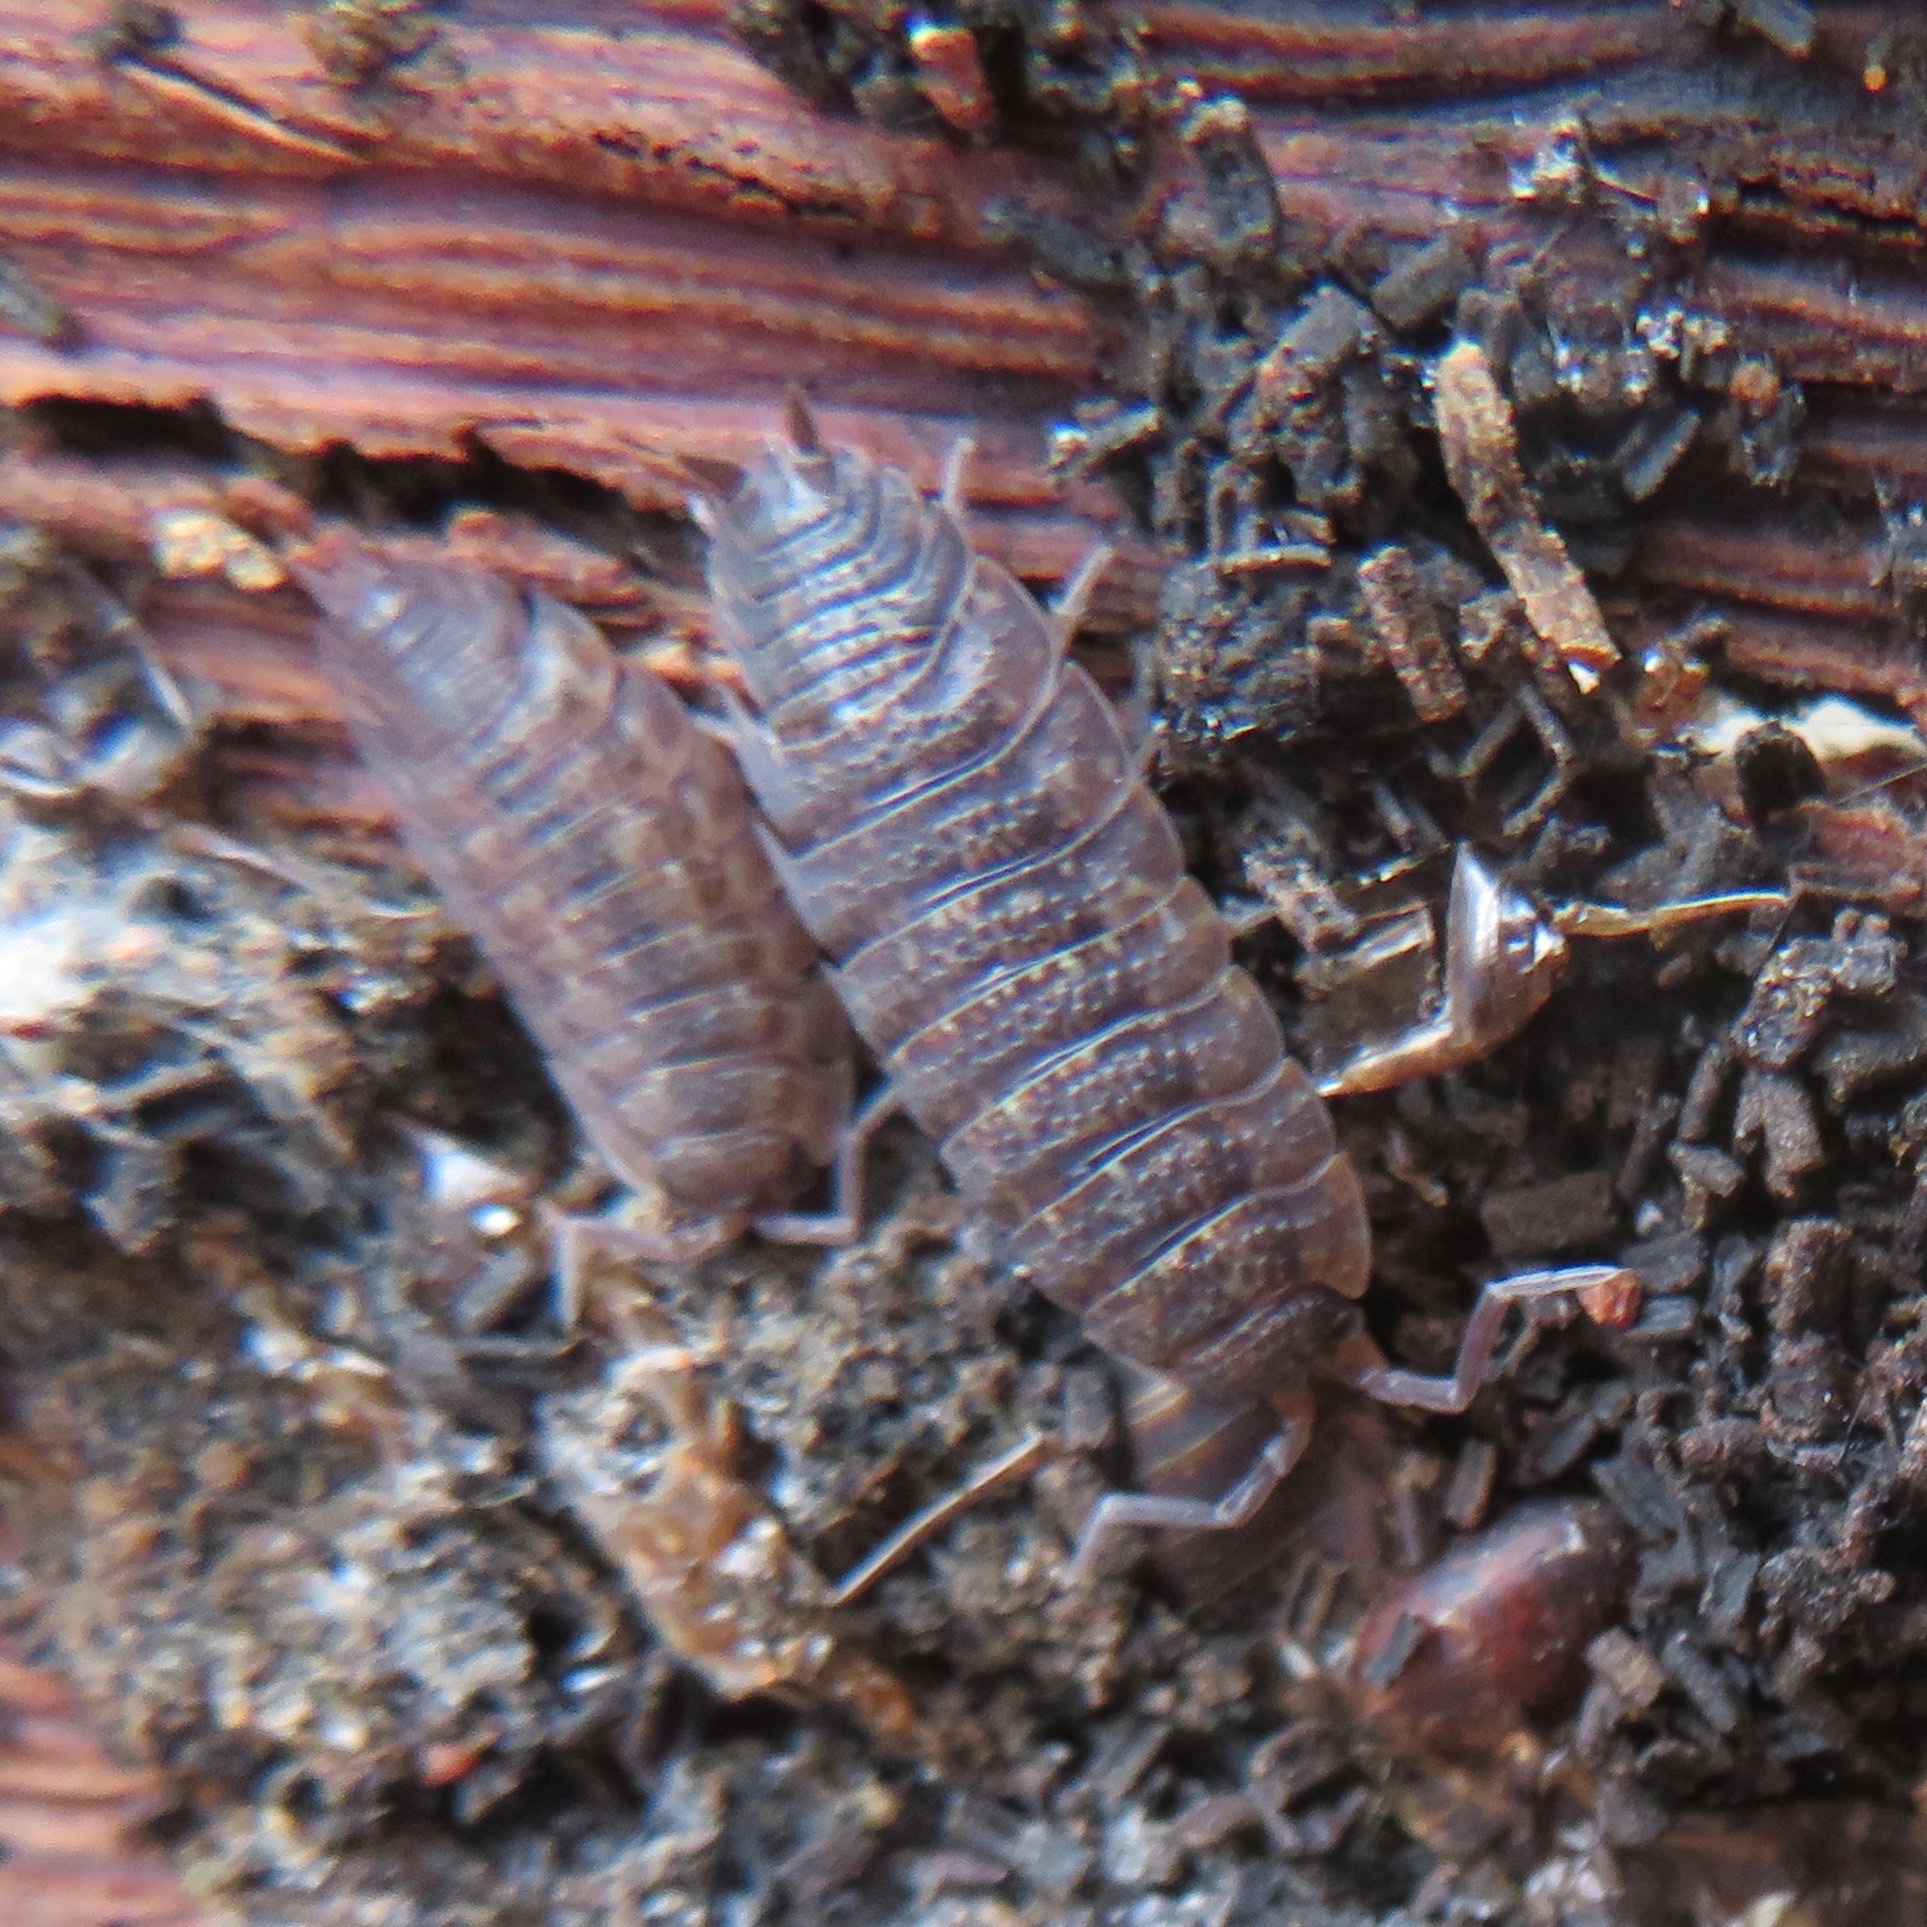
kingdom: Animalia
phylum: Arthropoda
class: Malacostraca
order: Isopoda
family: Porcellionidae
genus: Porcellio
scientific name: Porcellio scaber
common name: Common rough woodlouse
